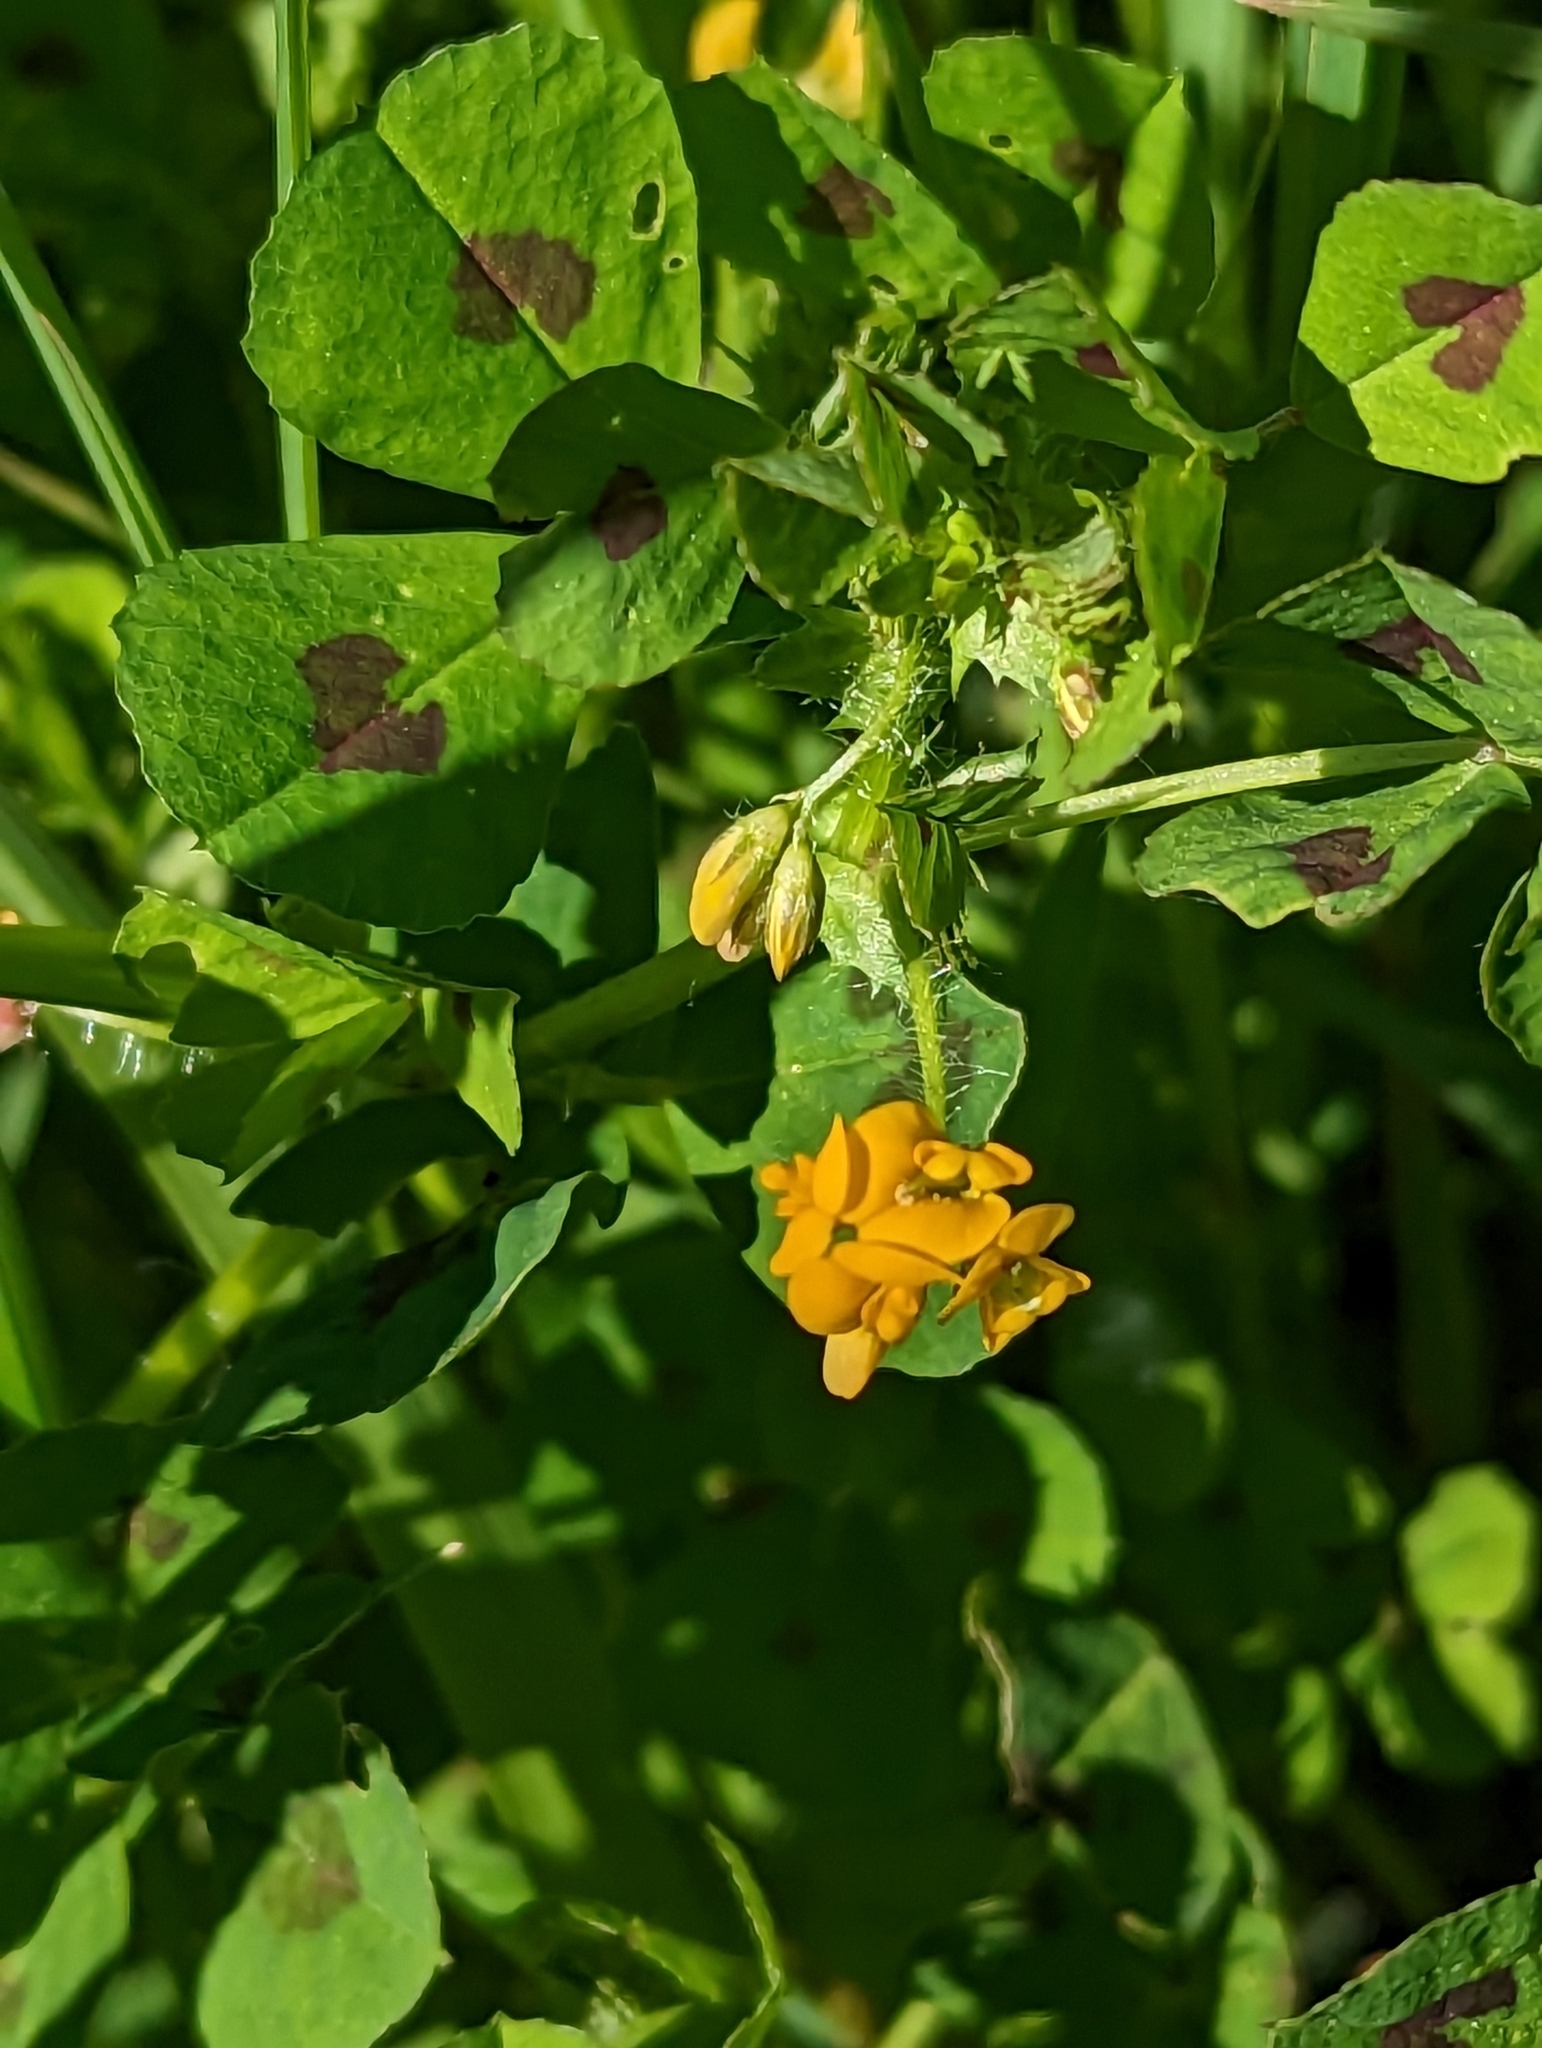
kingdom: Plantae
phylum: Tracheophyta
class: Magnoliopsida
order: Fabales
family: Fabaceae
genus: Medicago
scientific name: Medicago arabica
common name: Spotted medick
